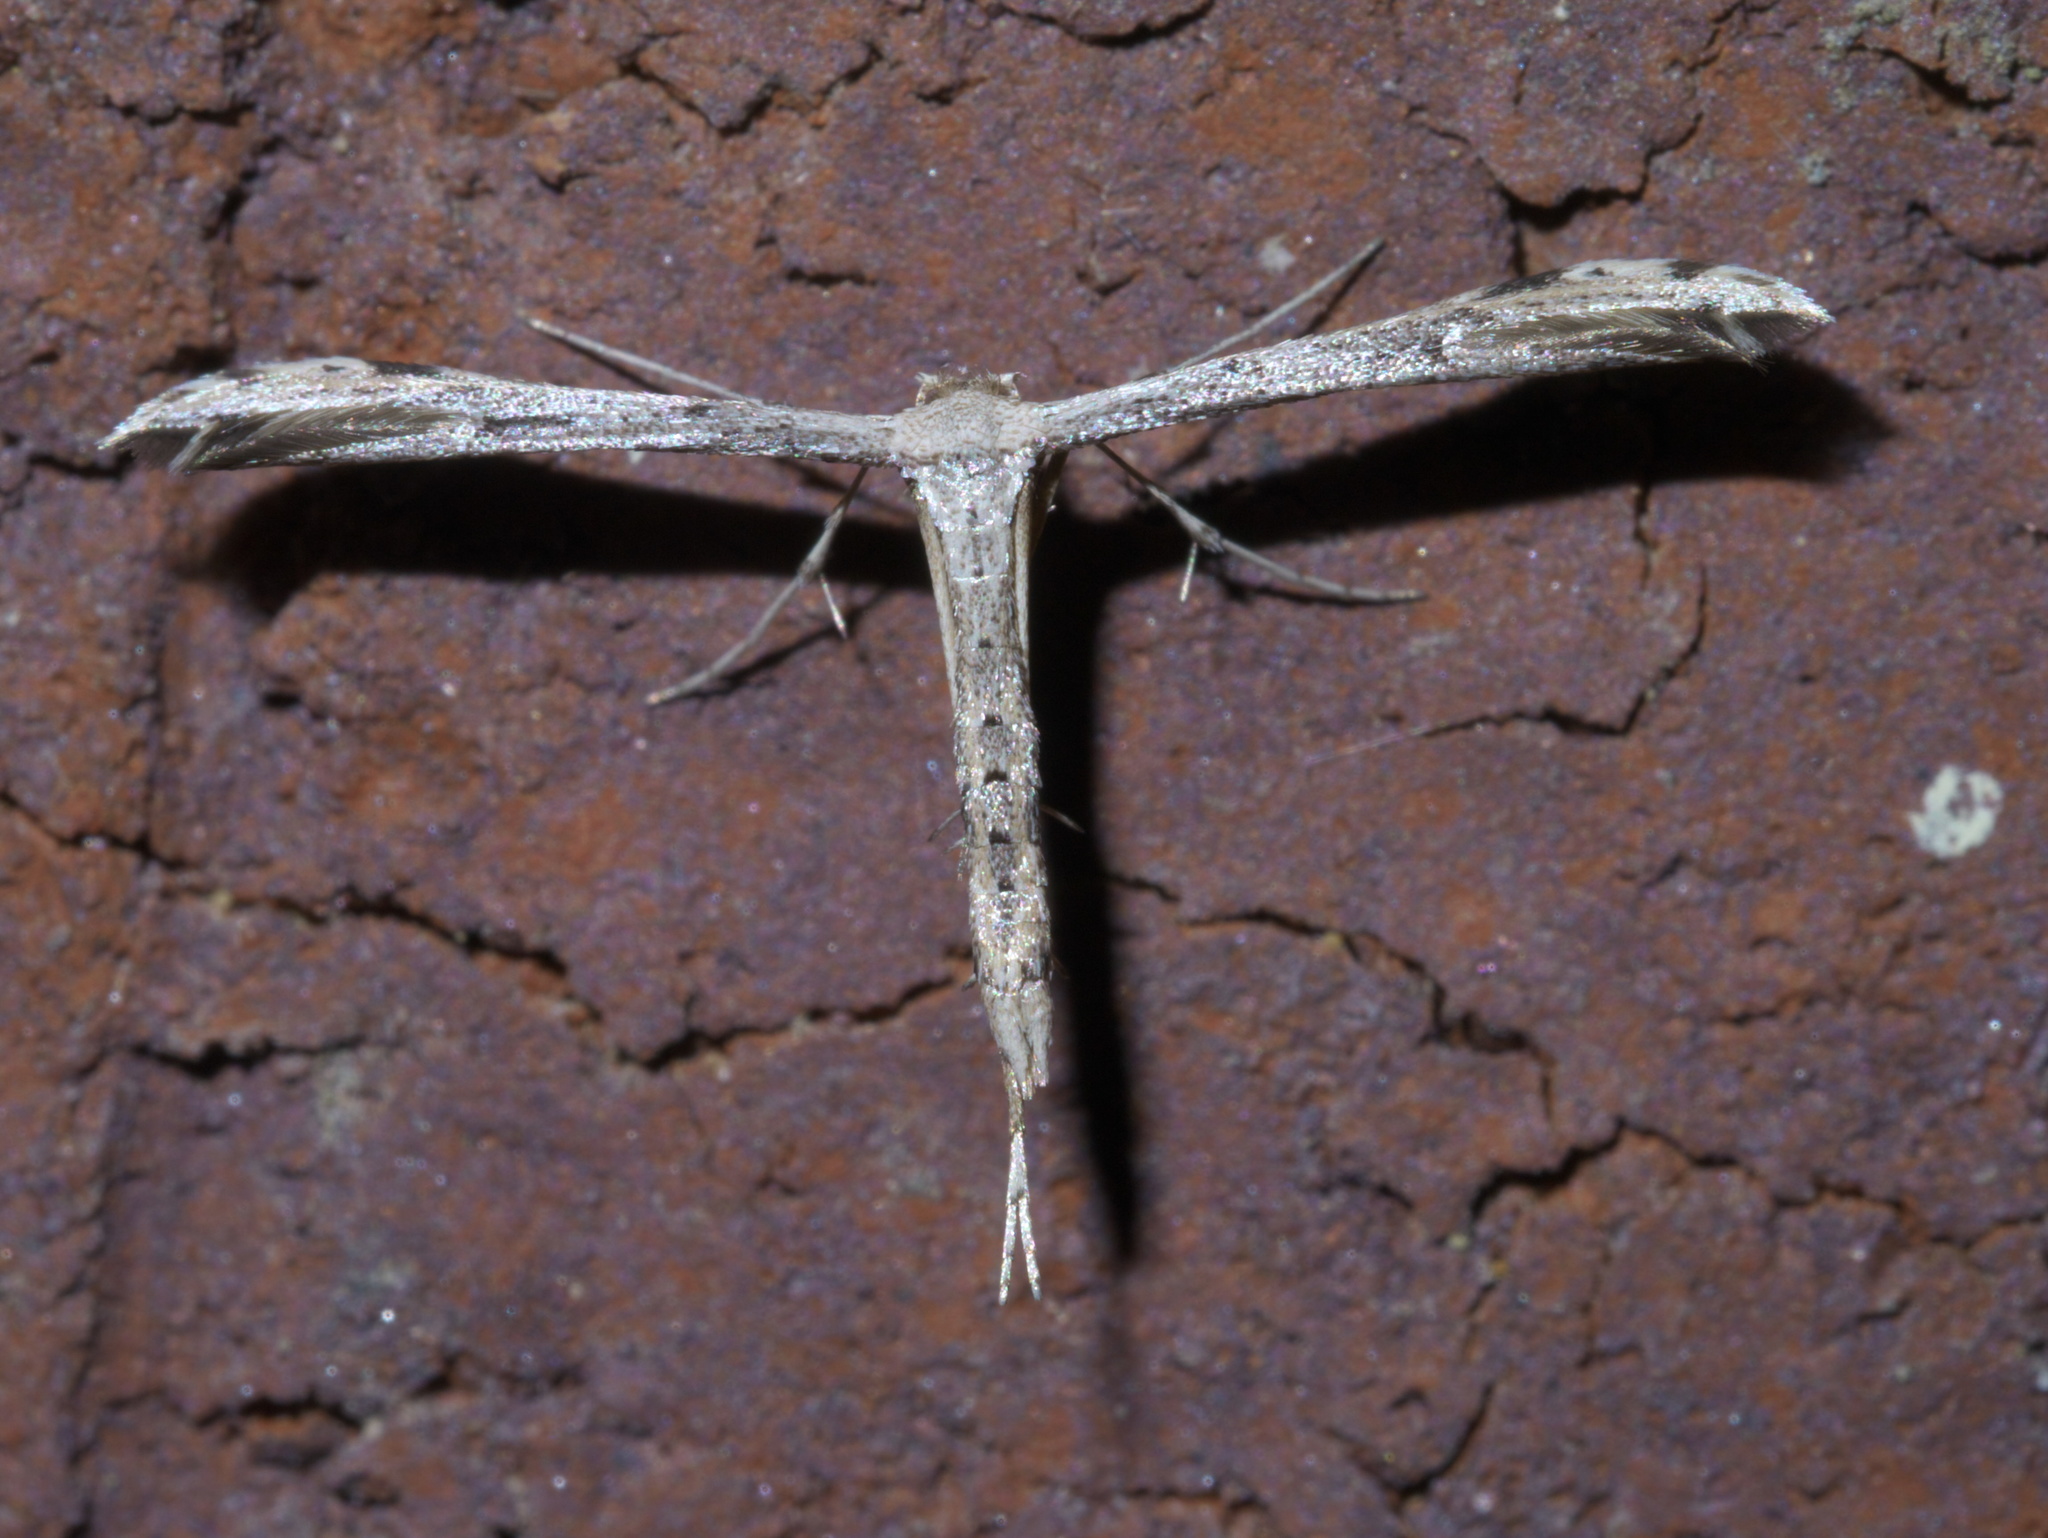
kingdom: Animalia
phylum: Arthropoda
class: Insecta
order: Lepidoptera
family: Pterophoridae
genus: Adaina
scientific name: Adaina ambrosiae
